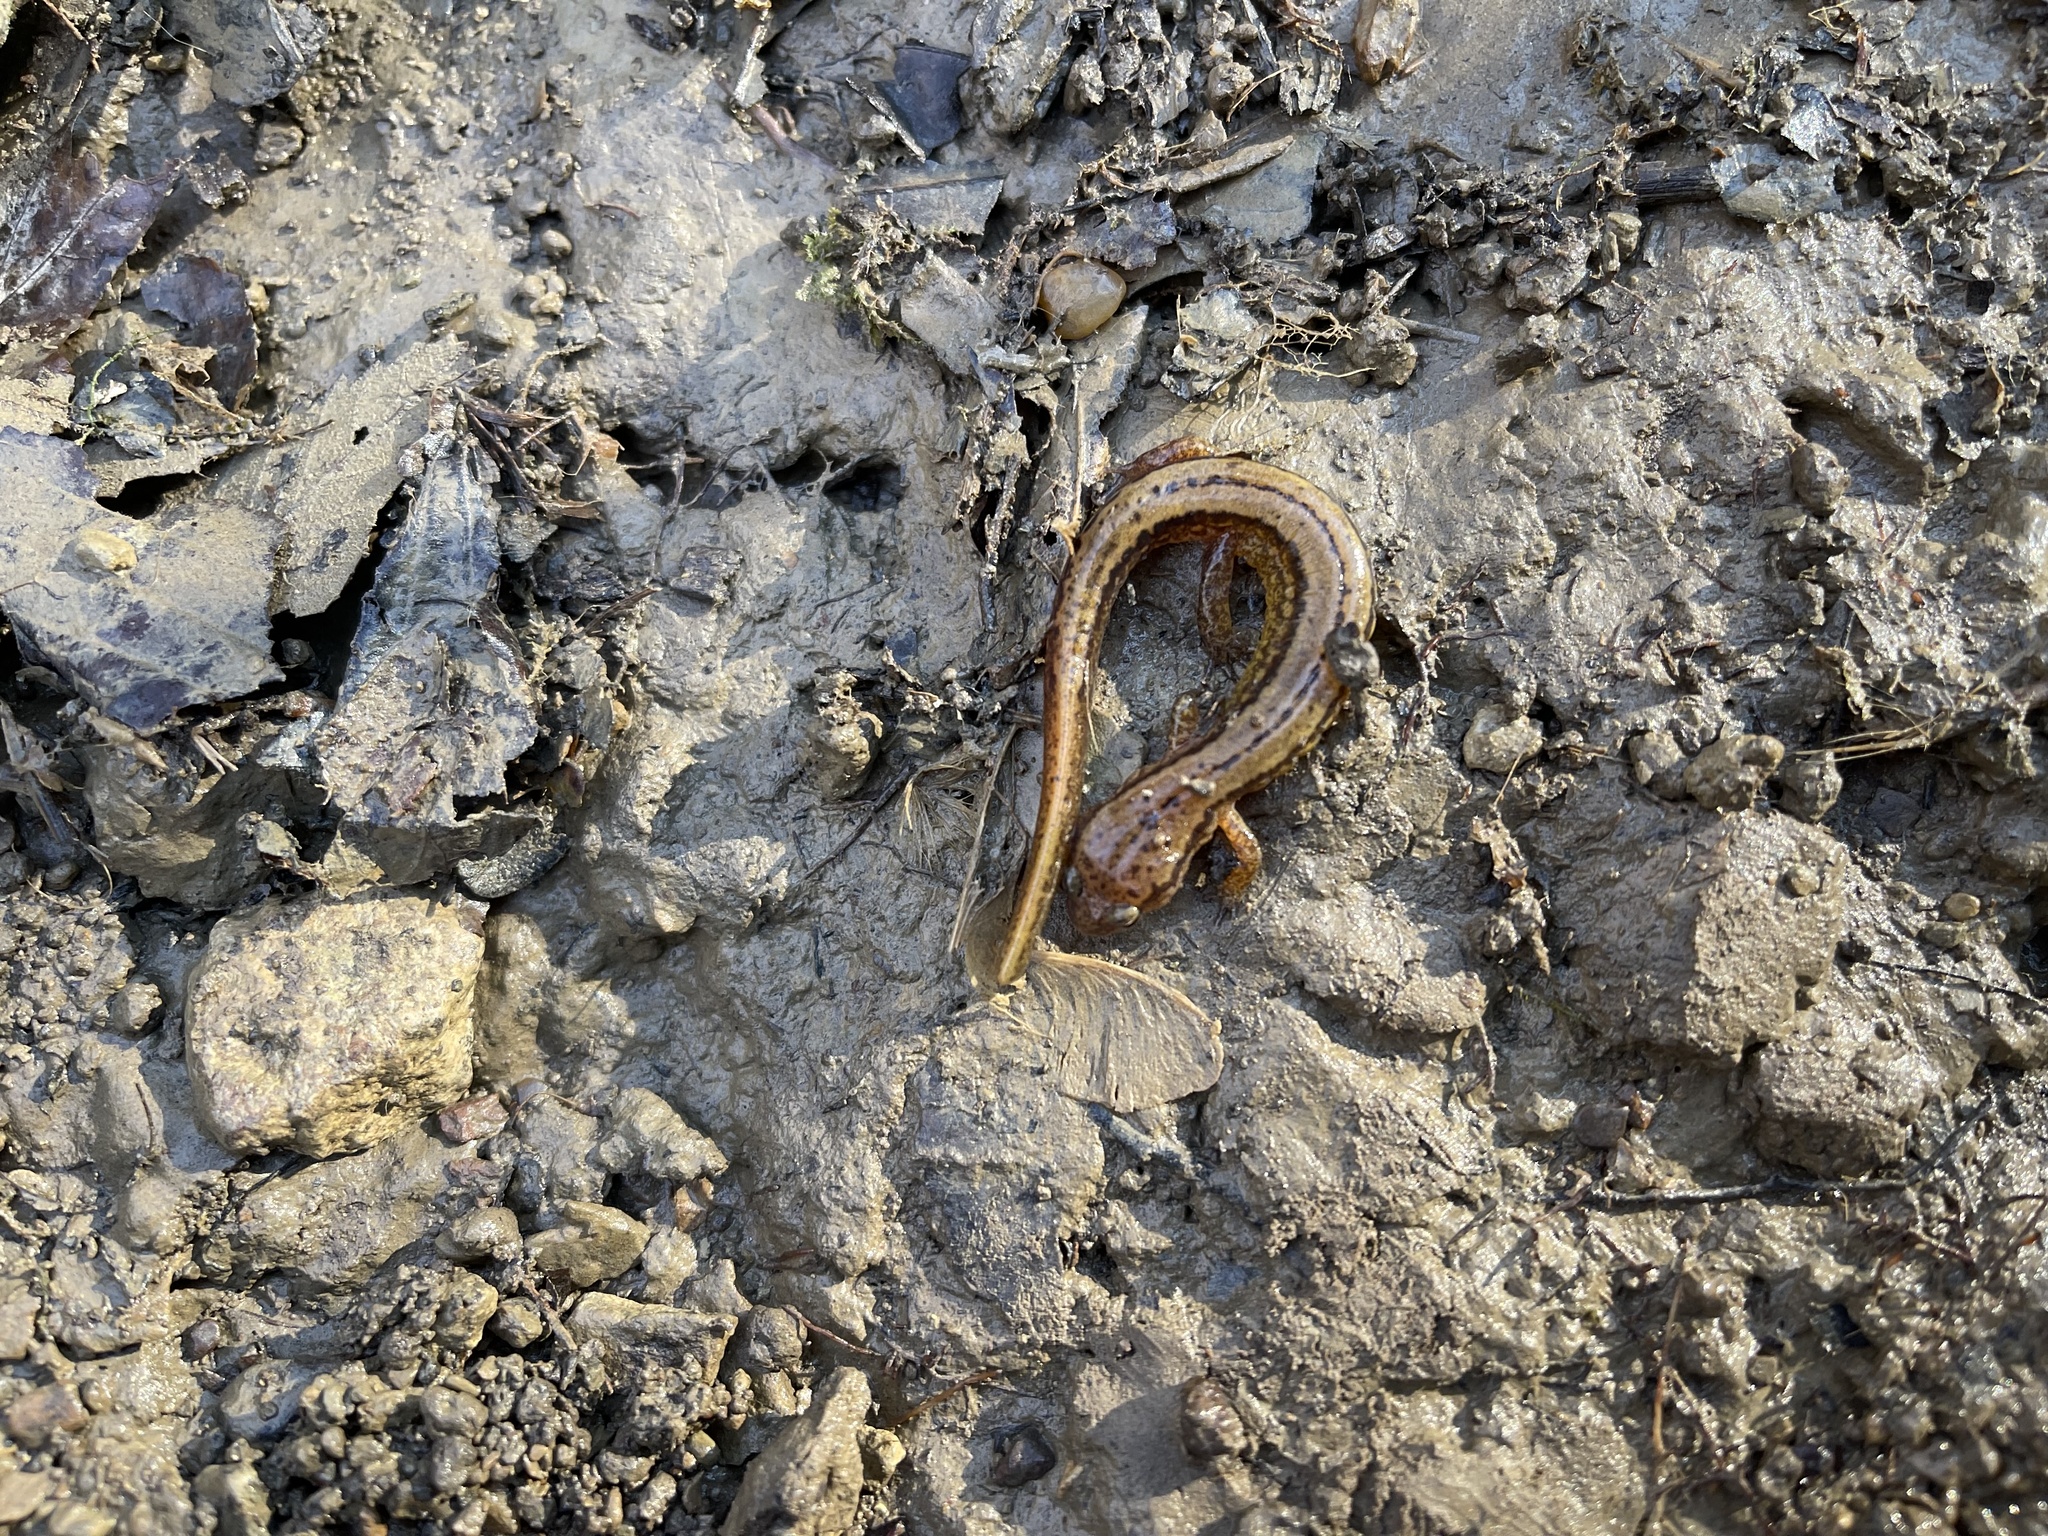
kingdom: Animalia
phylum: Chordata
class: Amphibia
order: Caudata
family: Plethodontidae
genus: Eurycea
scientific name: Eurycea cirrigera
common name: Southern two-lined salamander
